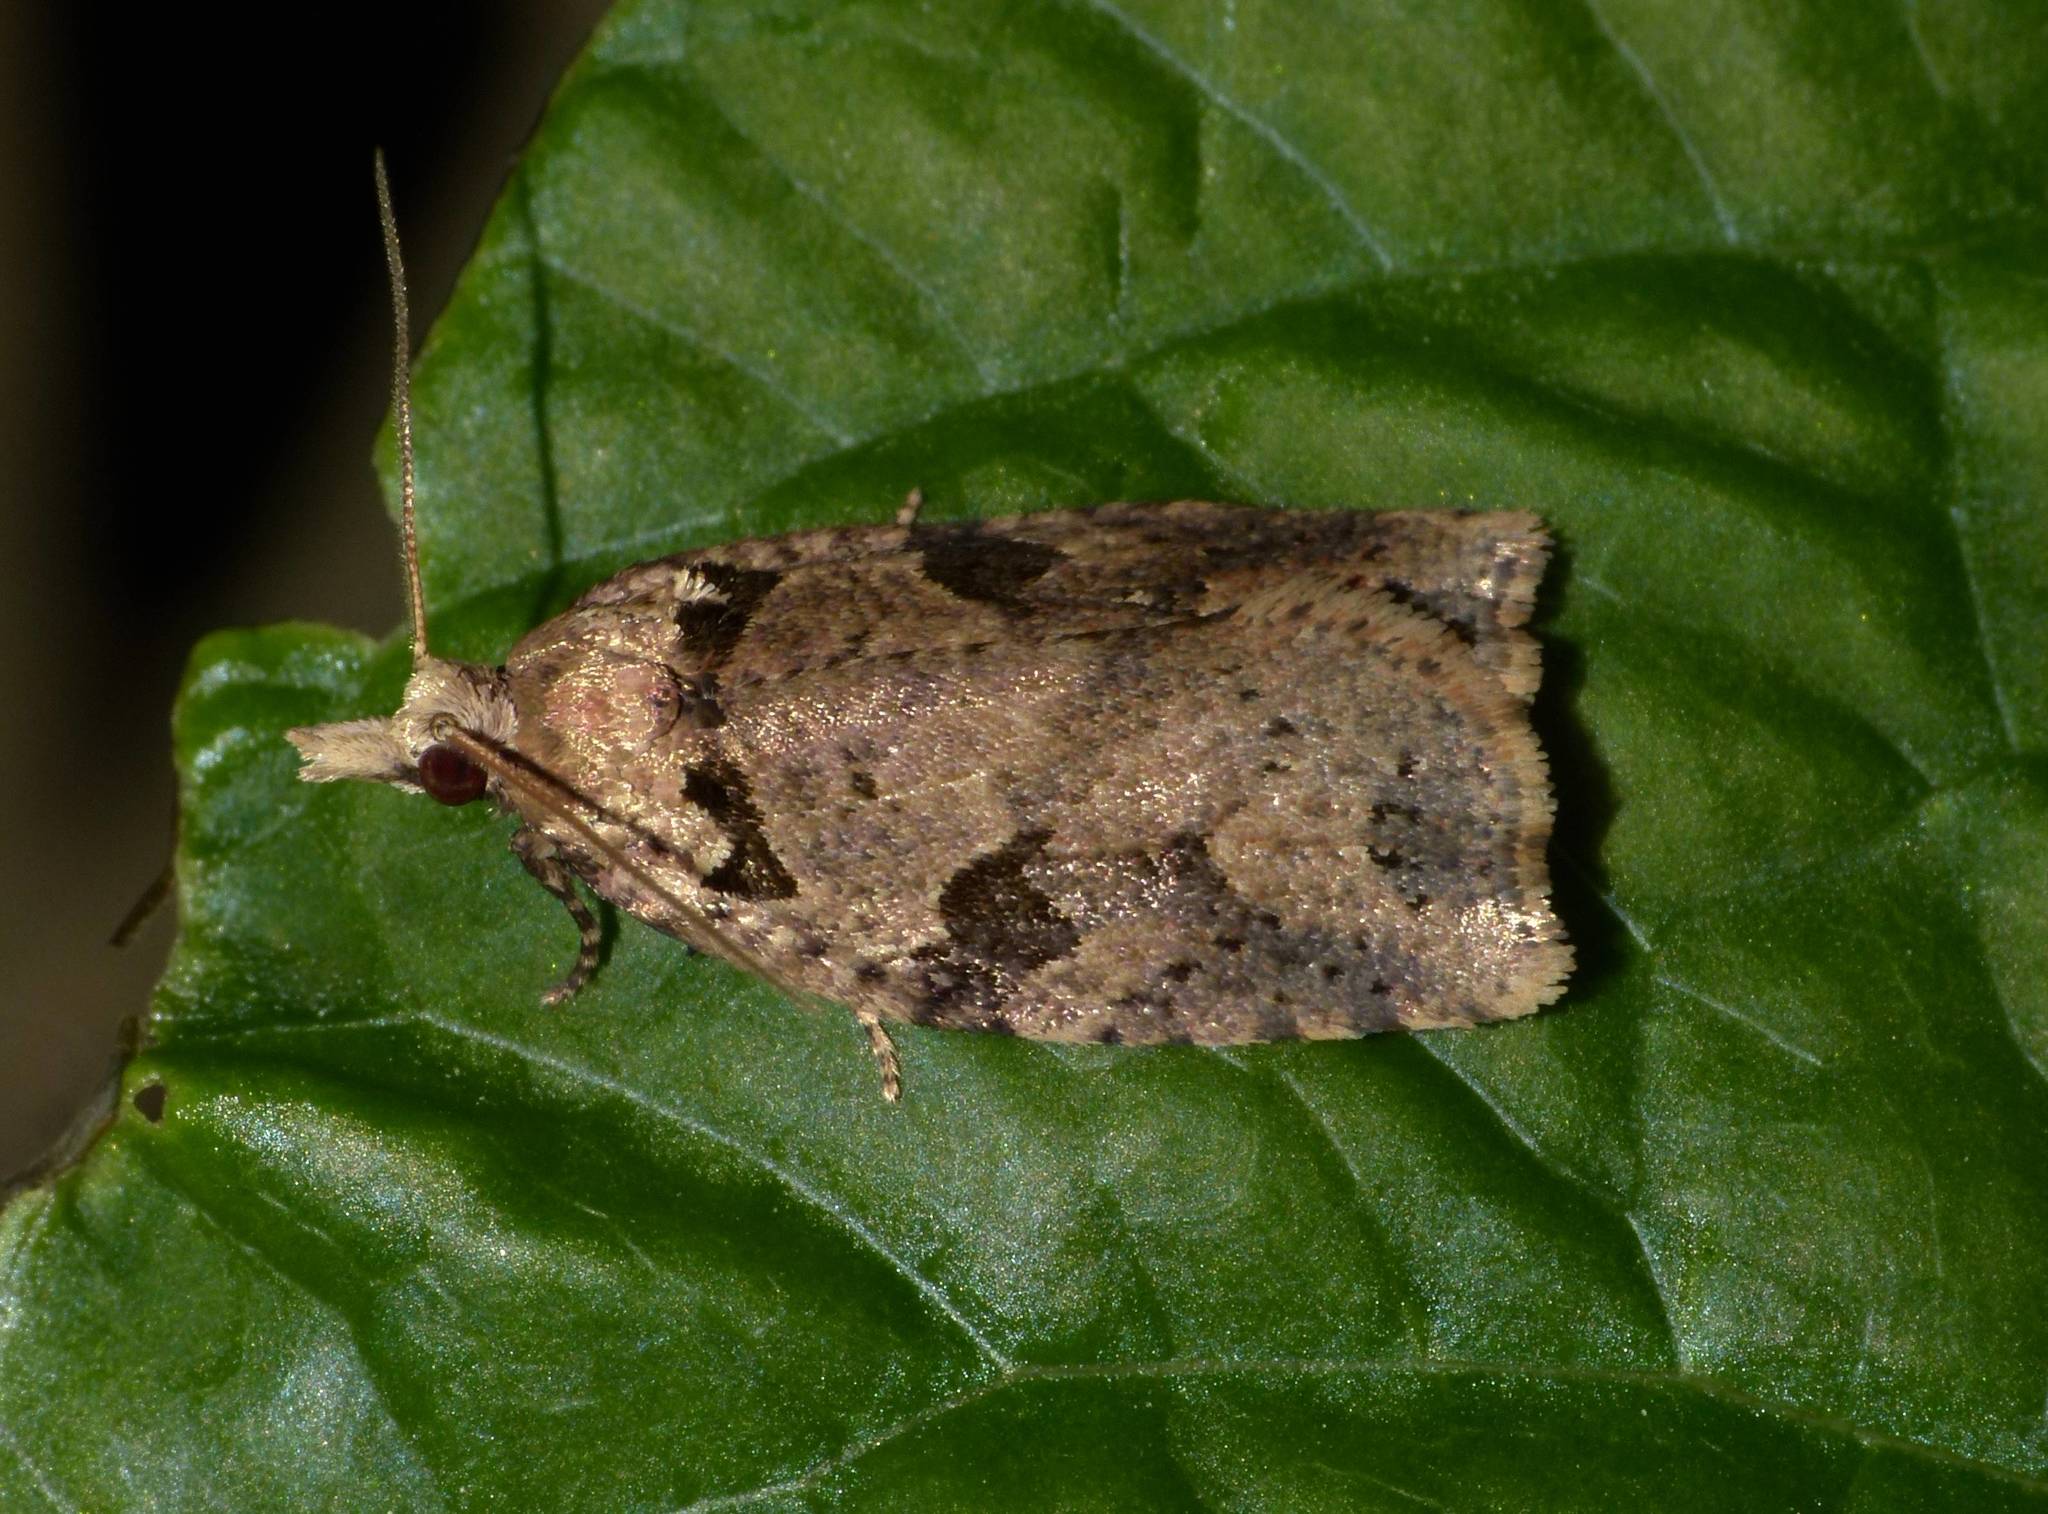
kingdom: Animalia
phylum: Arthropoda
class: Insecta
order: Lepidoptera
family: Tortricidae
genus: Ctenopseustis
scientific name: Ctenopseustis obliquana
